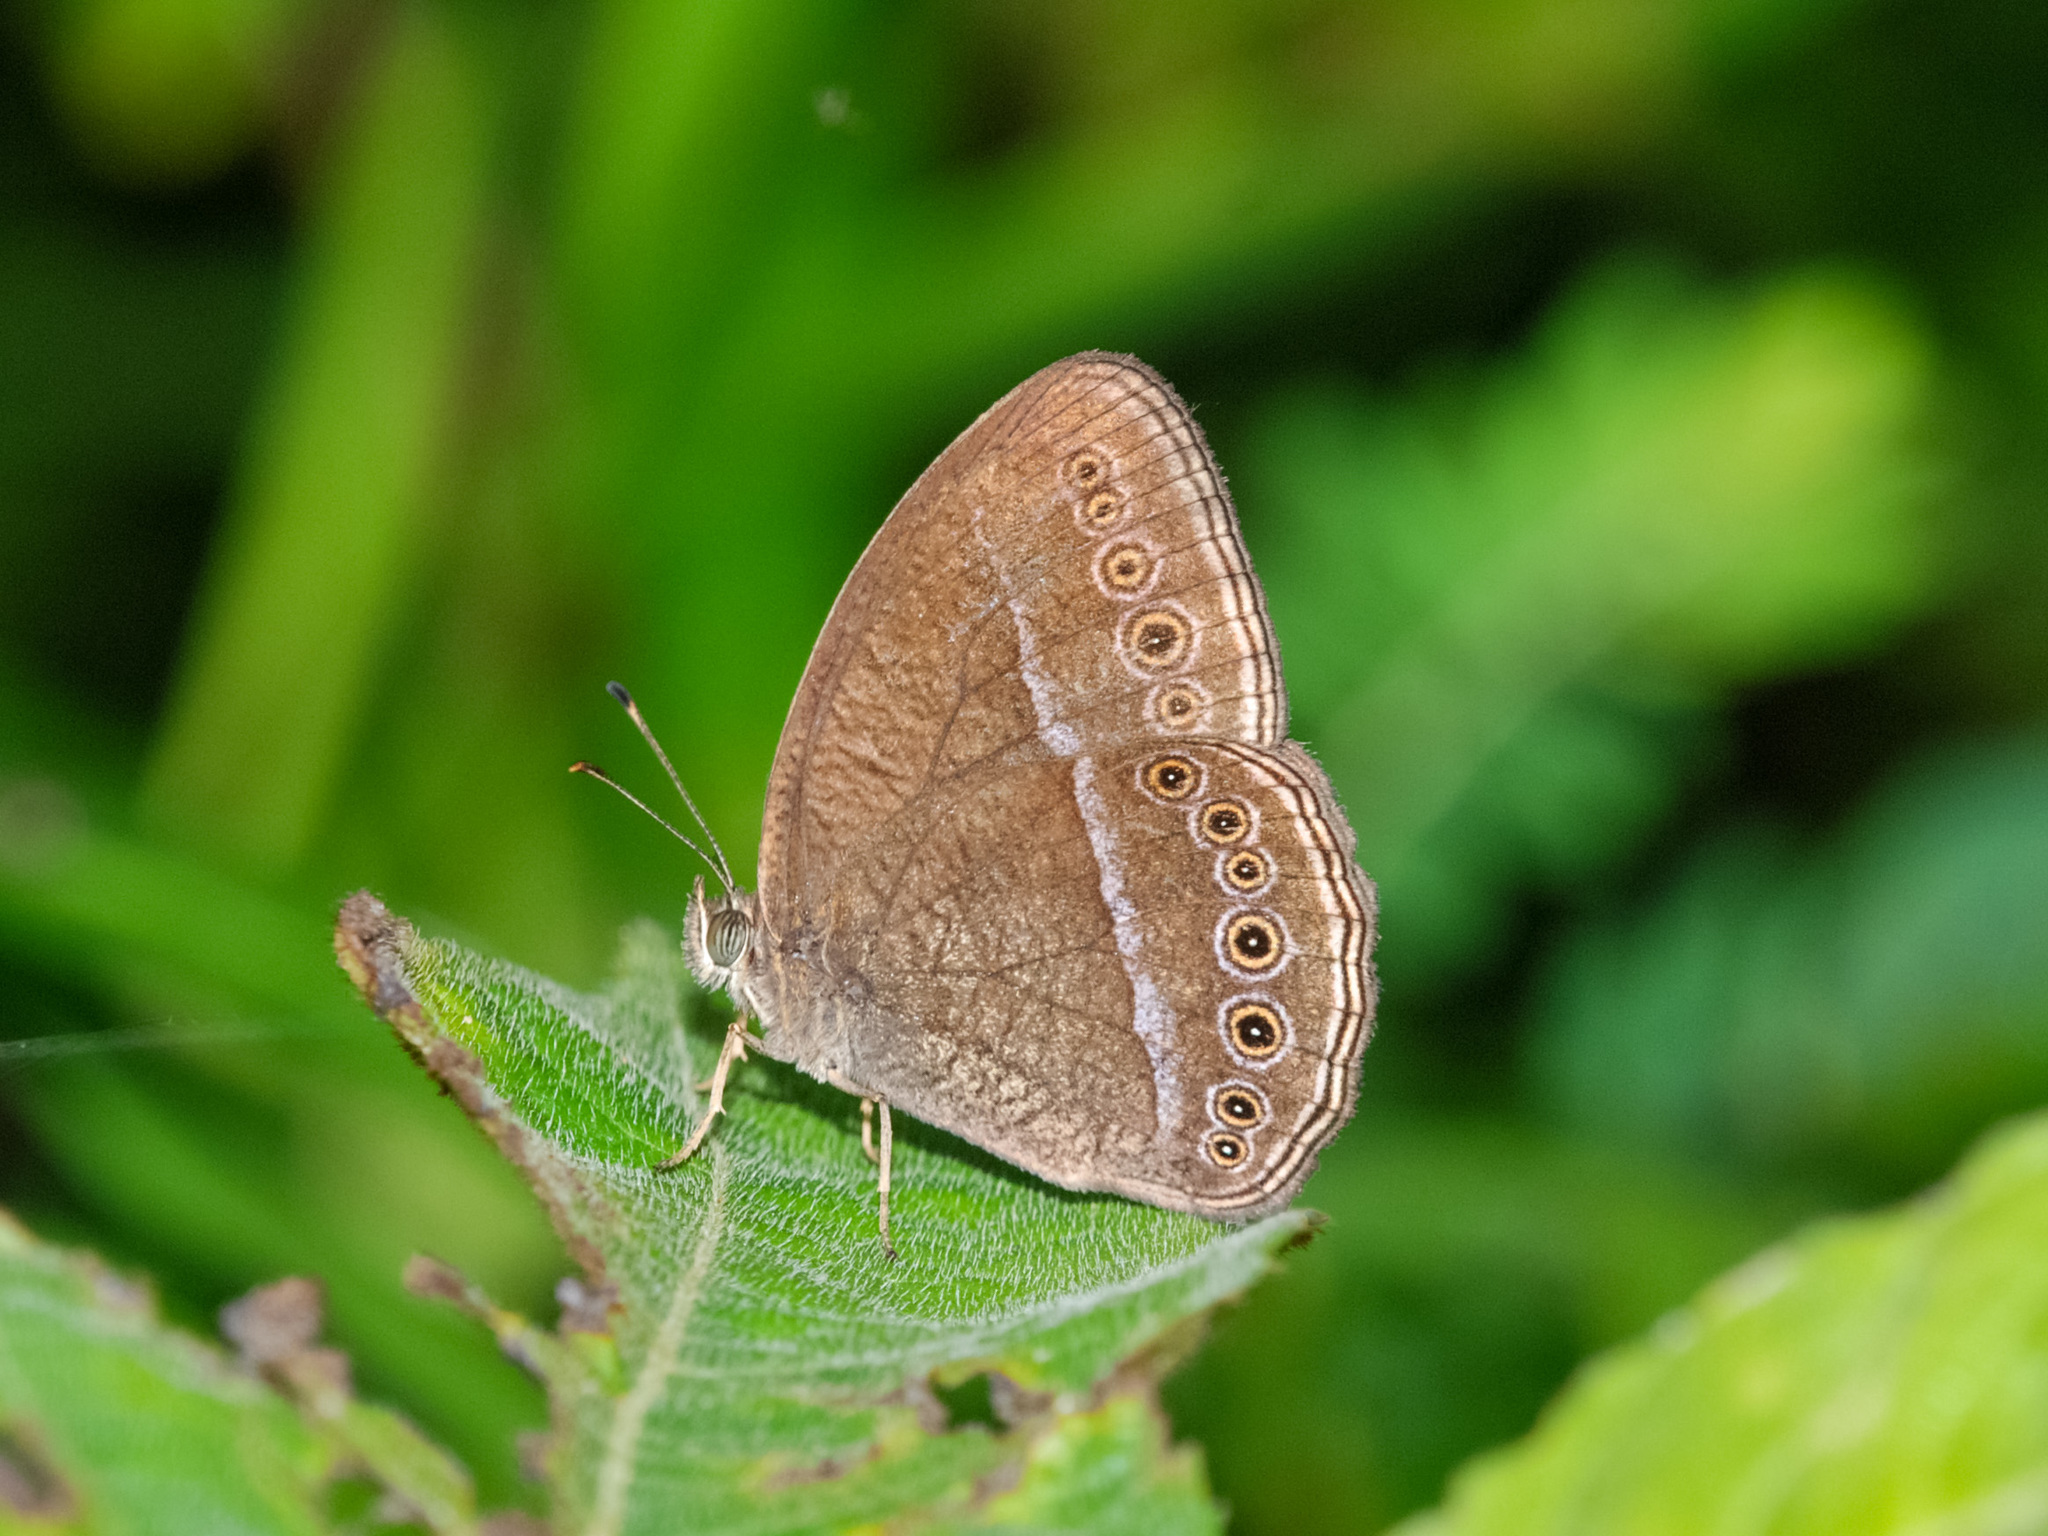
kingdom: Animalia
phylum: Arthropoda
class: Insecta
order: Lepidoptera
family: Nymphalidae
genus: Mycalesis
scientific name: Mycalesis Telinga janardana
